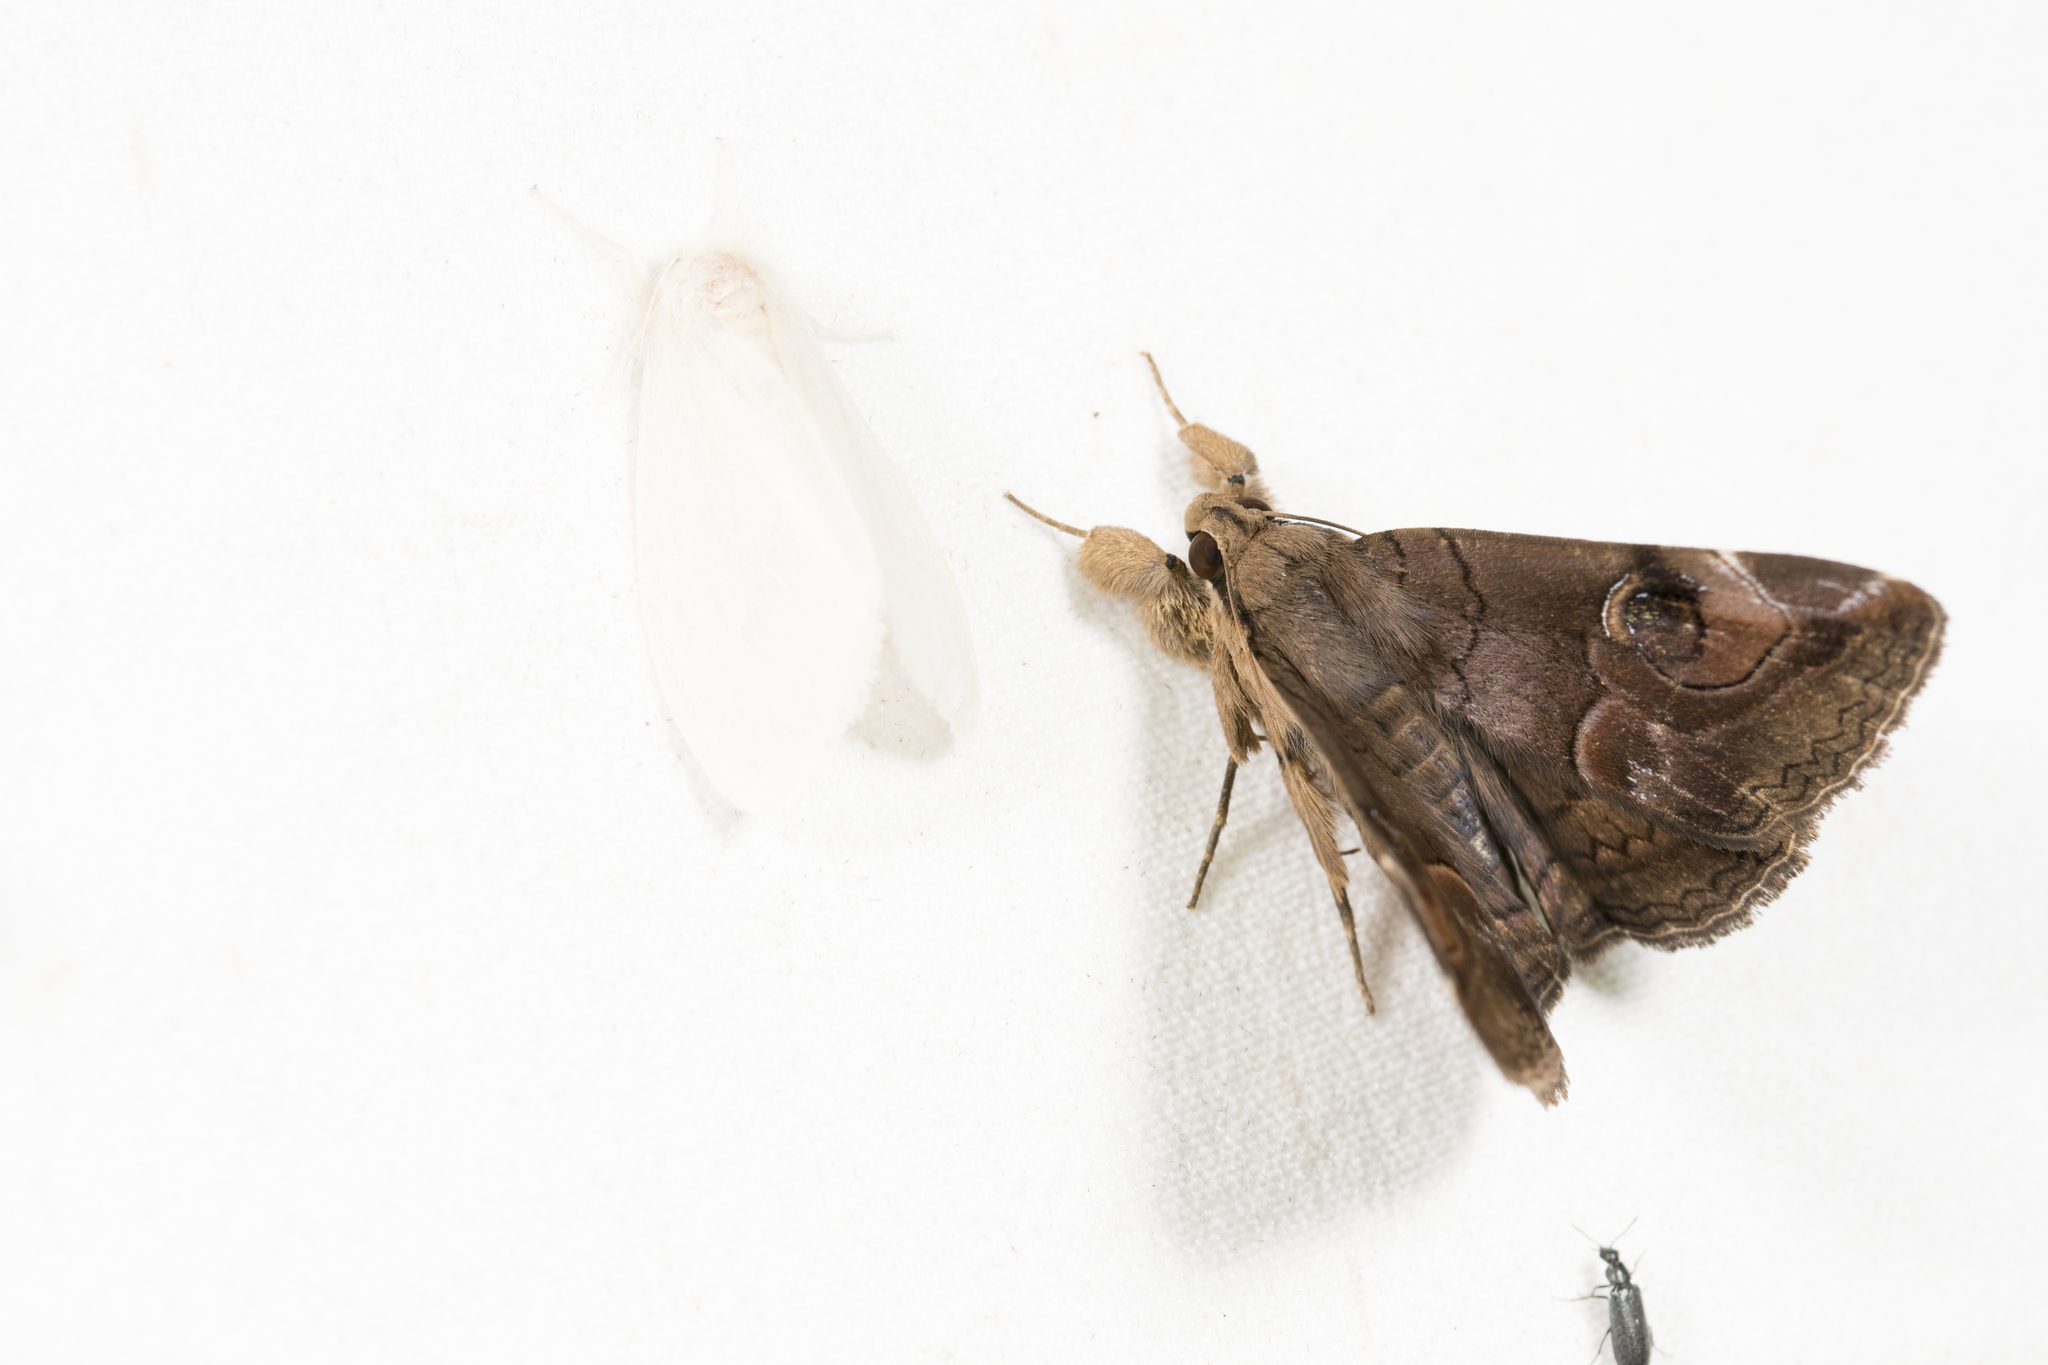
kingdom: Animalia
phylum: Arthropoda
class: Insecta
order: Lepidoptera
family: Erebidae
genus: Ommatophora
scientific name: Ommatophora luminosa
